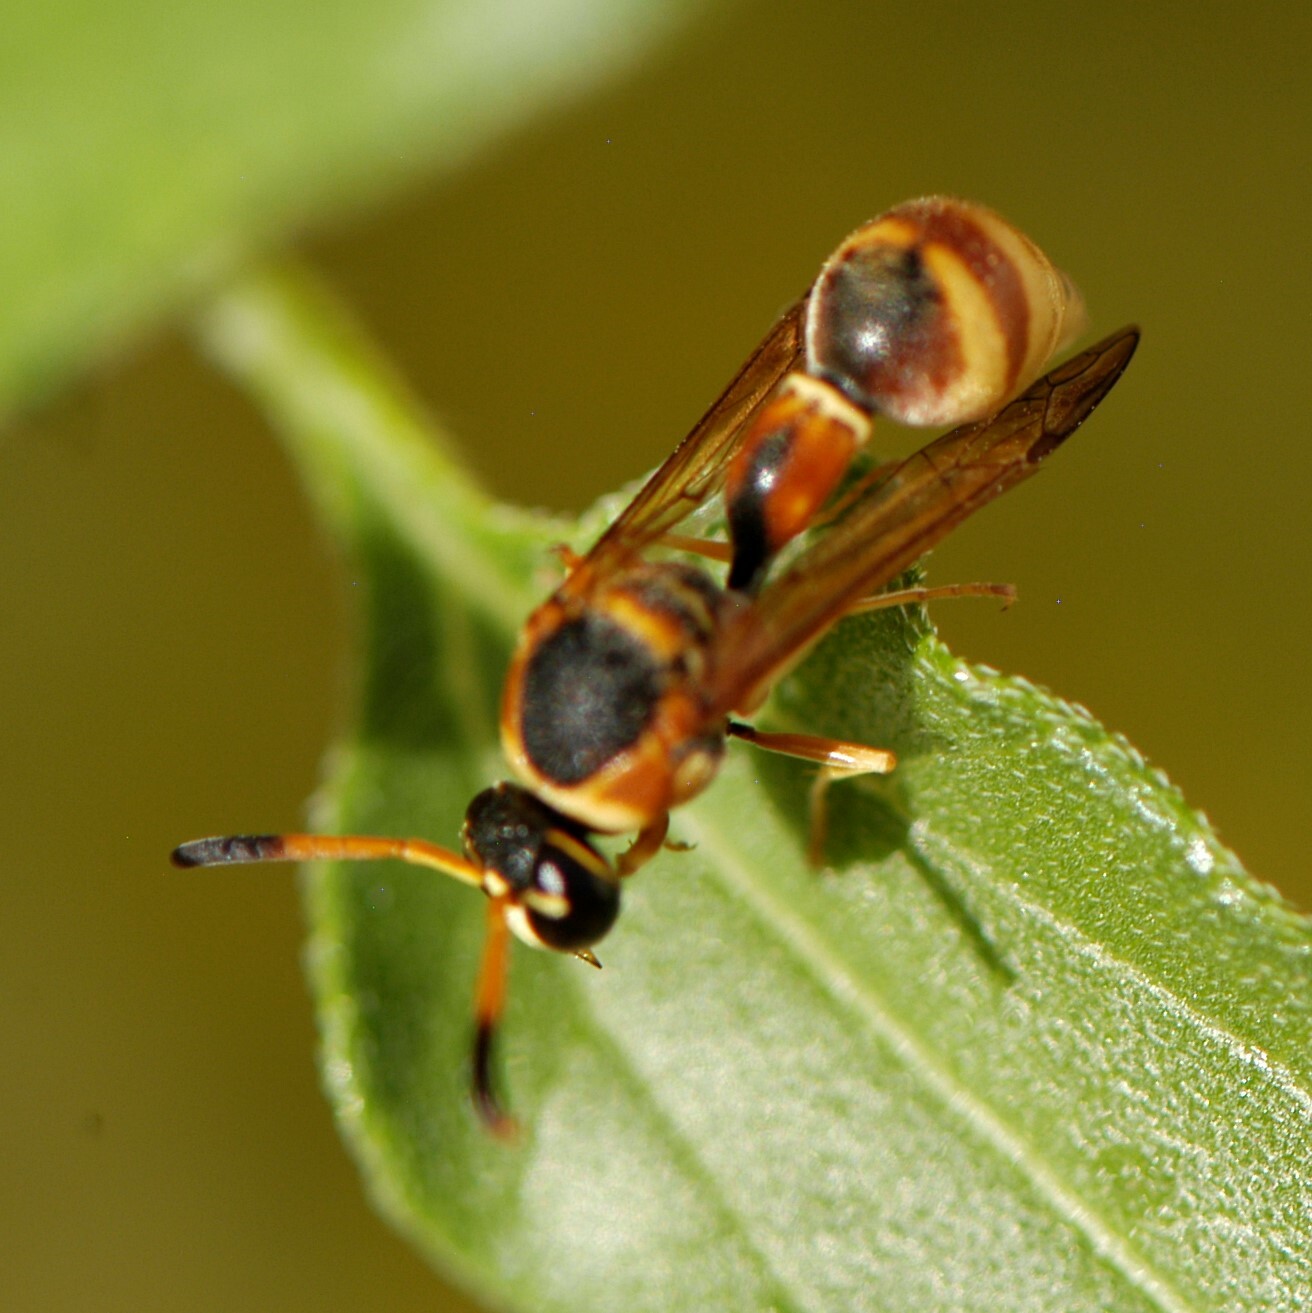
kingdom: Animalia
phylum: Arthropoda
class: Insecta
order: Hymenoptera
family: Vespidae
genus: Eumenes
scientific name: Eumenes americanus
